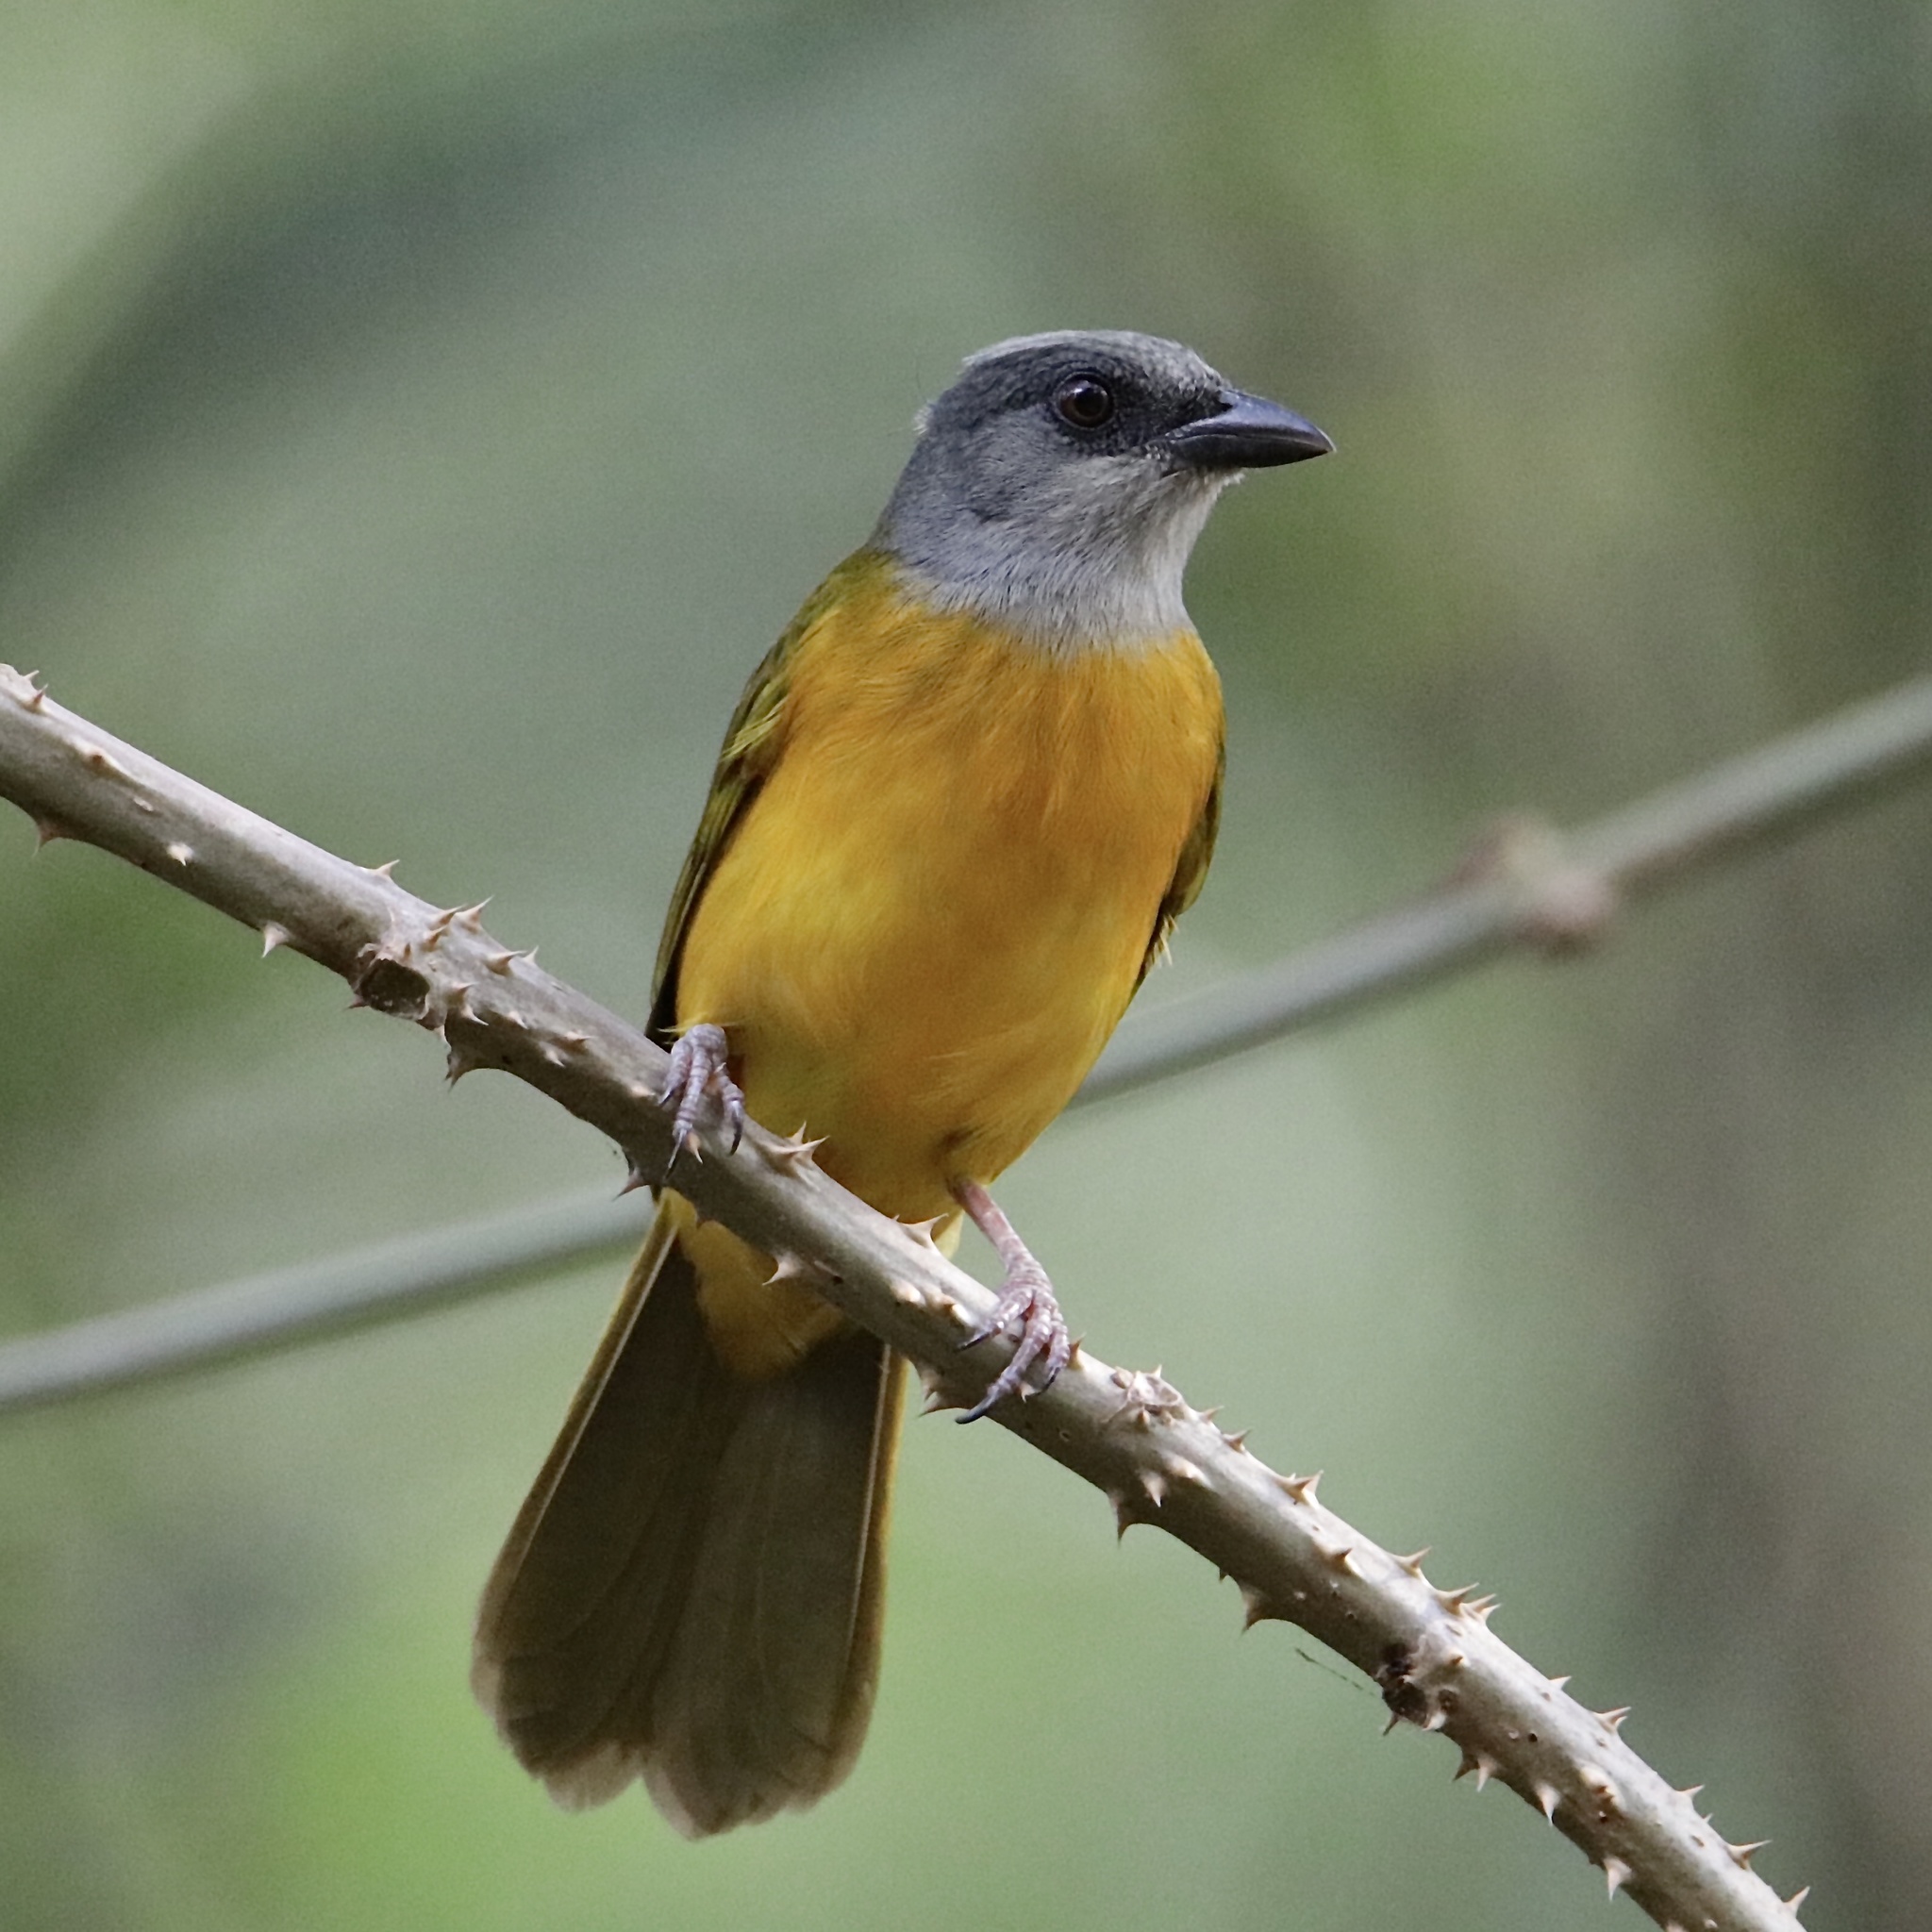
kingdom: Animalia
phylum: Chordata
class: Aves
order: Passeriformes
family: Thraupidae
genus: Eucometis
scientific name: Eucometis penicillata
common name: Grey-headed tanager
